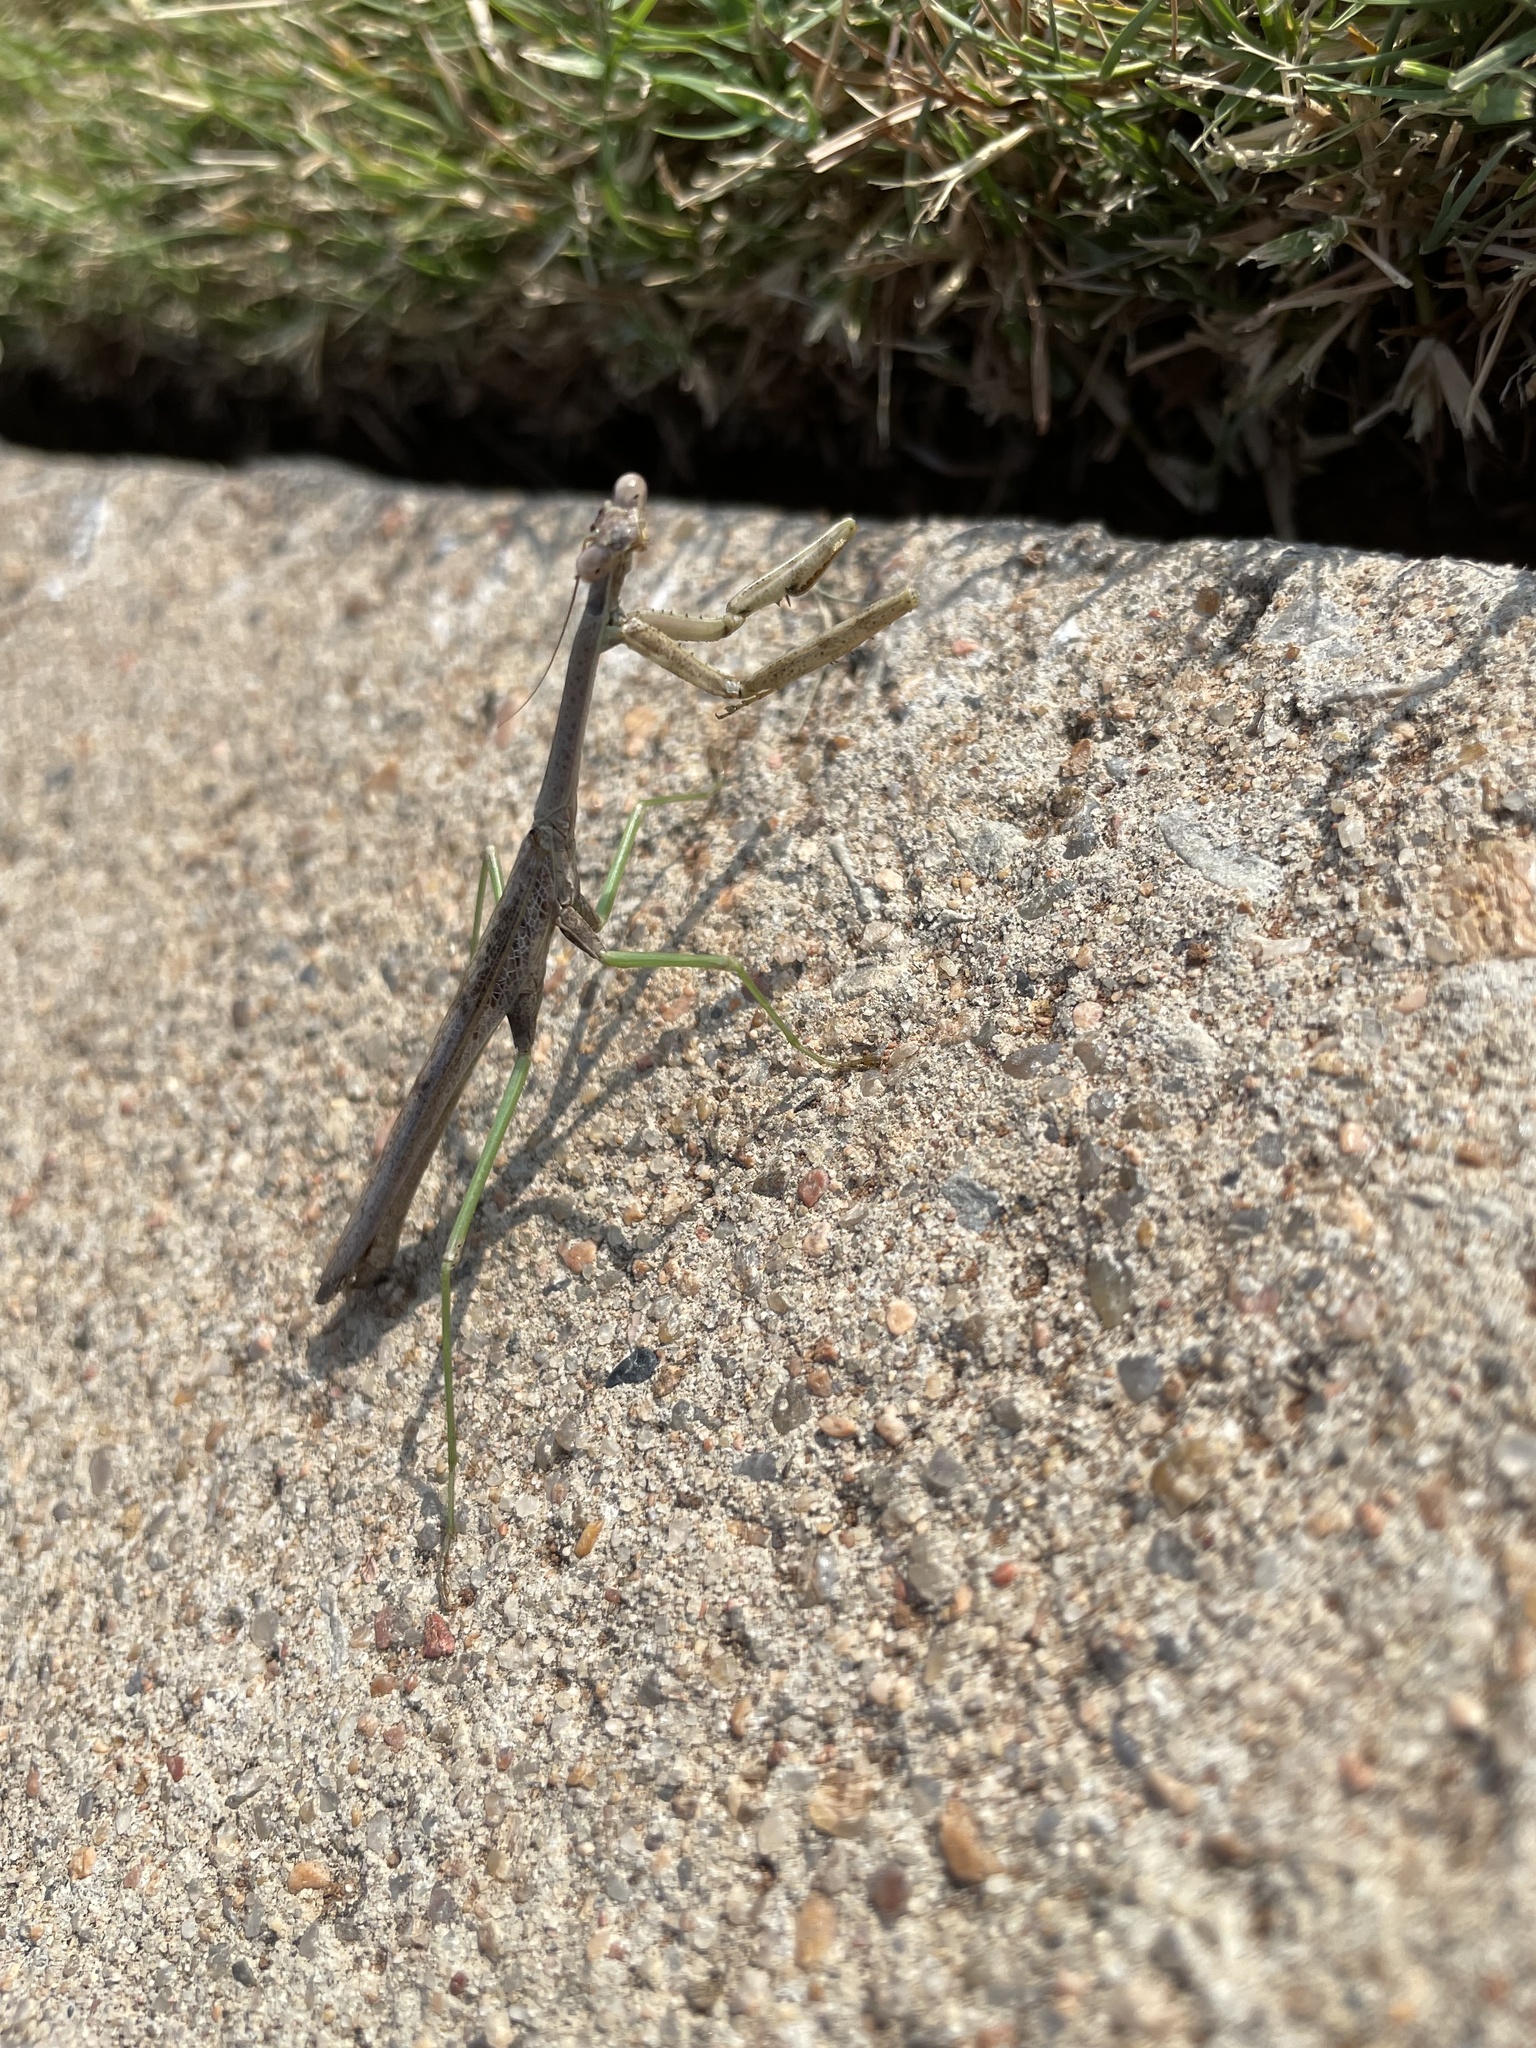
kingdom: Animalia
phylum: Arthropoda
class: Insecta
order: Mantodea
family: Mantidae
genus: Stagmomantis
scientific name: Stagmomantis carolina
